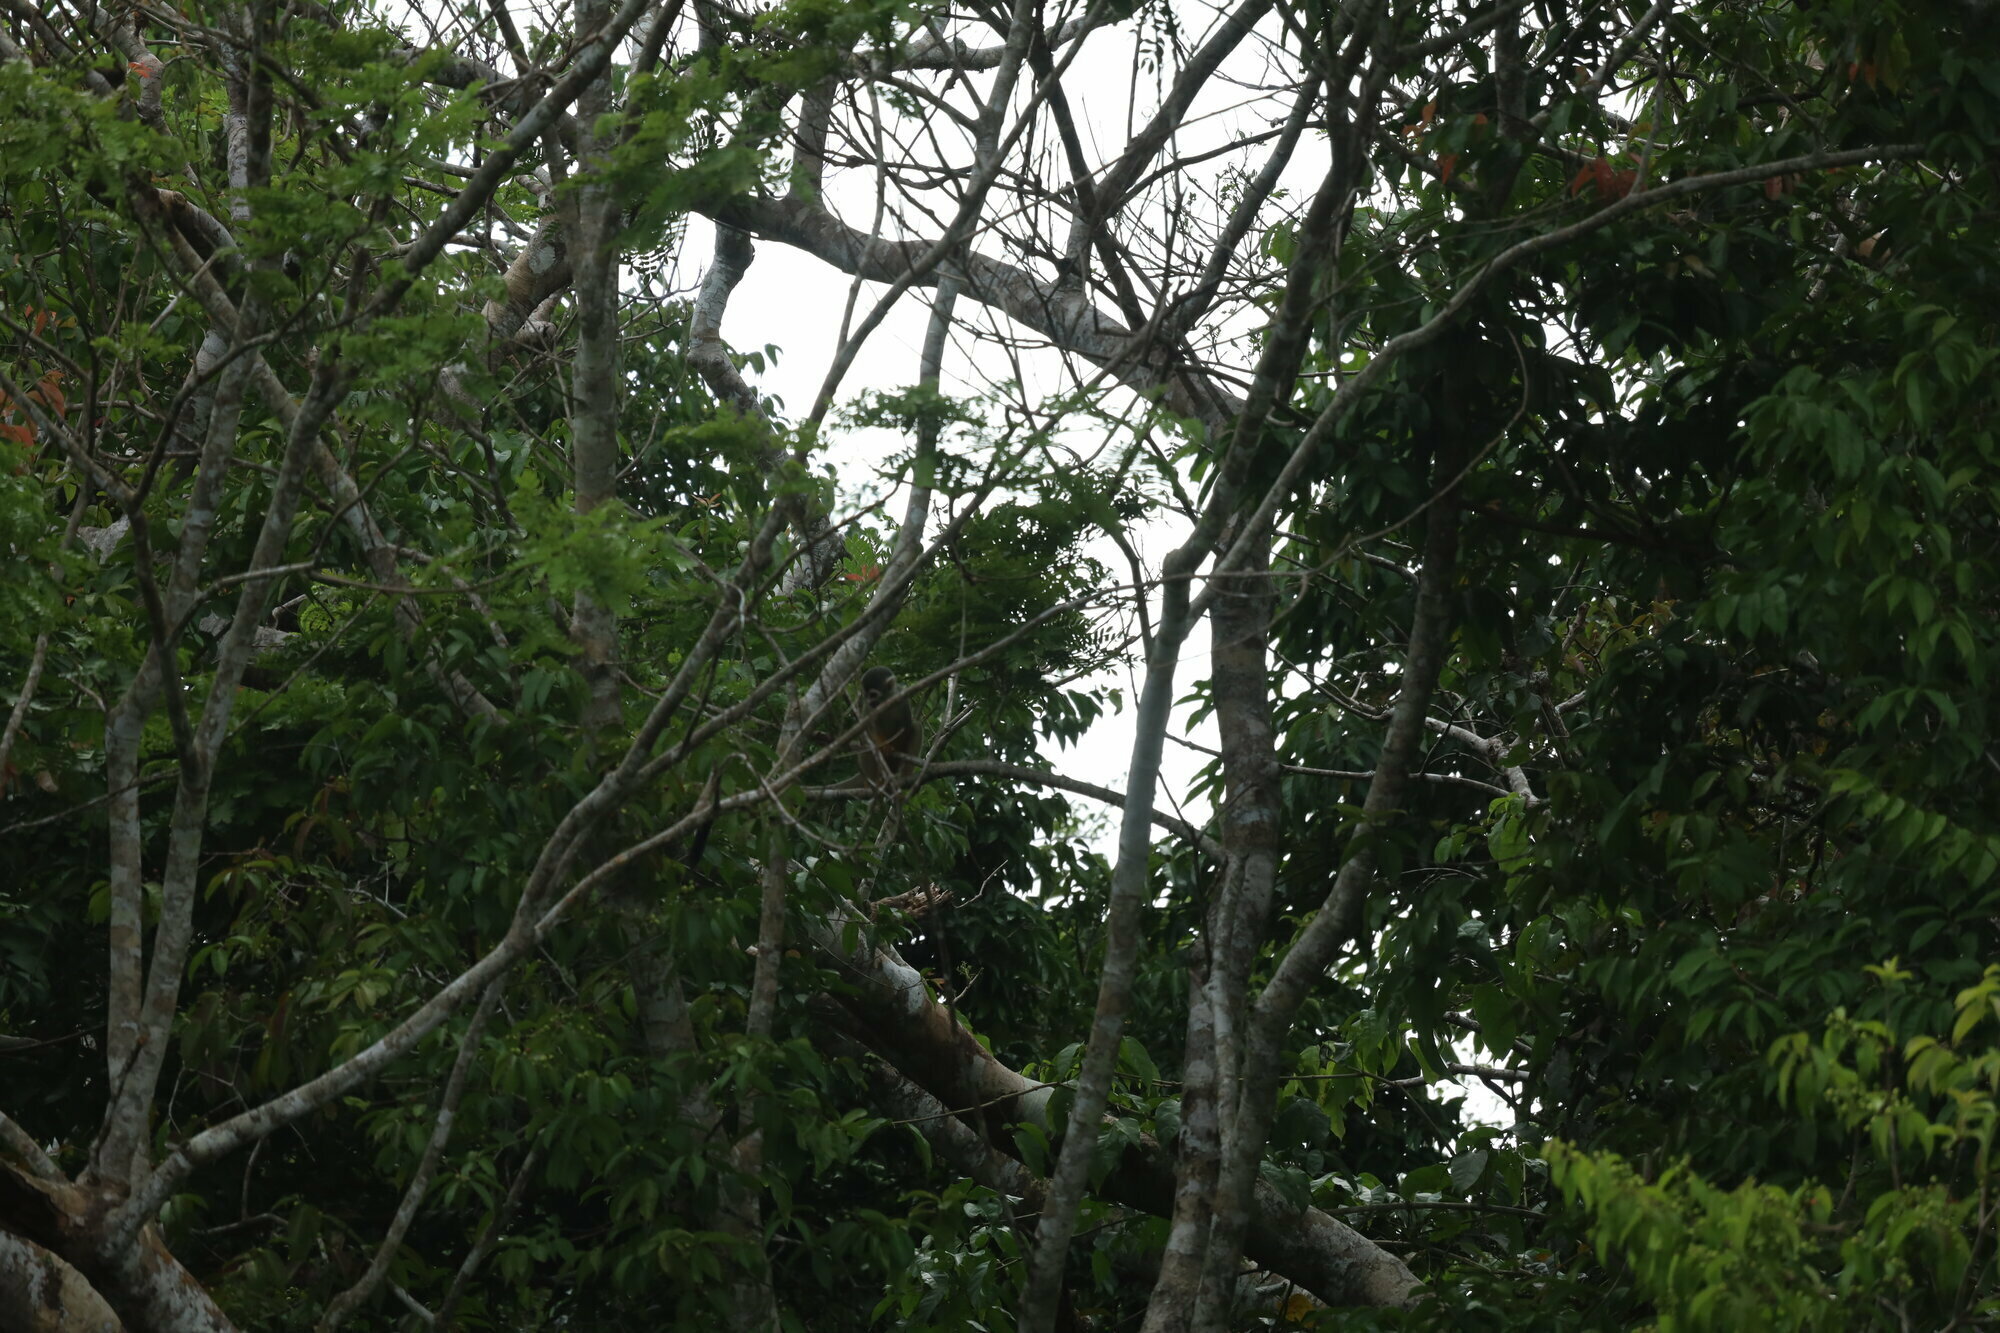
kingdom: Animalia
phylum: Chordata
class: Mammalia
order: Primates
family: Cebidae
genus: Saimiri
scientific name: Saimiri cassiquiarensis
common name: Humboldt’s squirrel monkey
